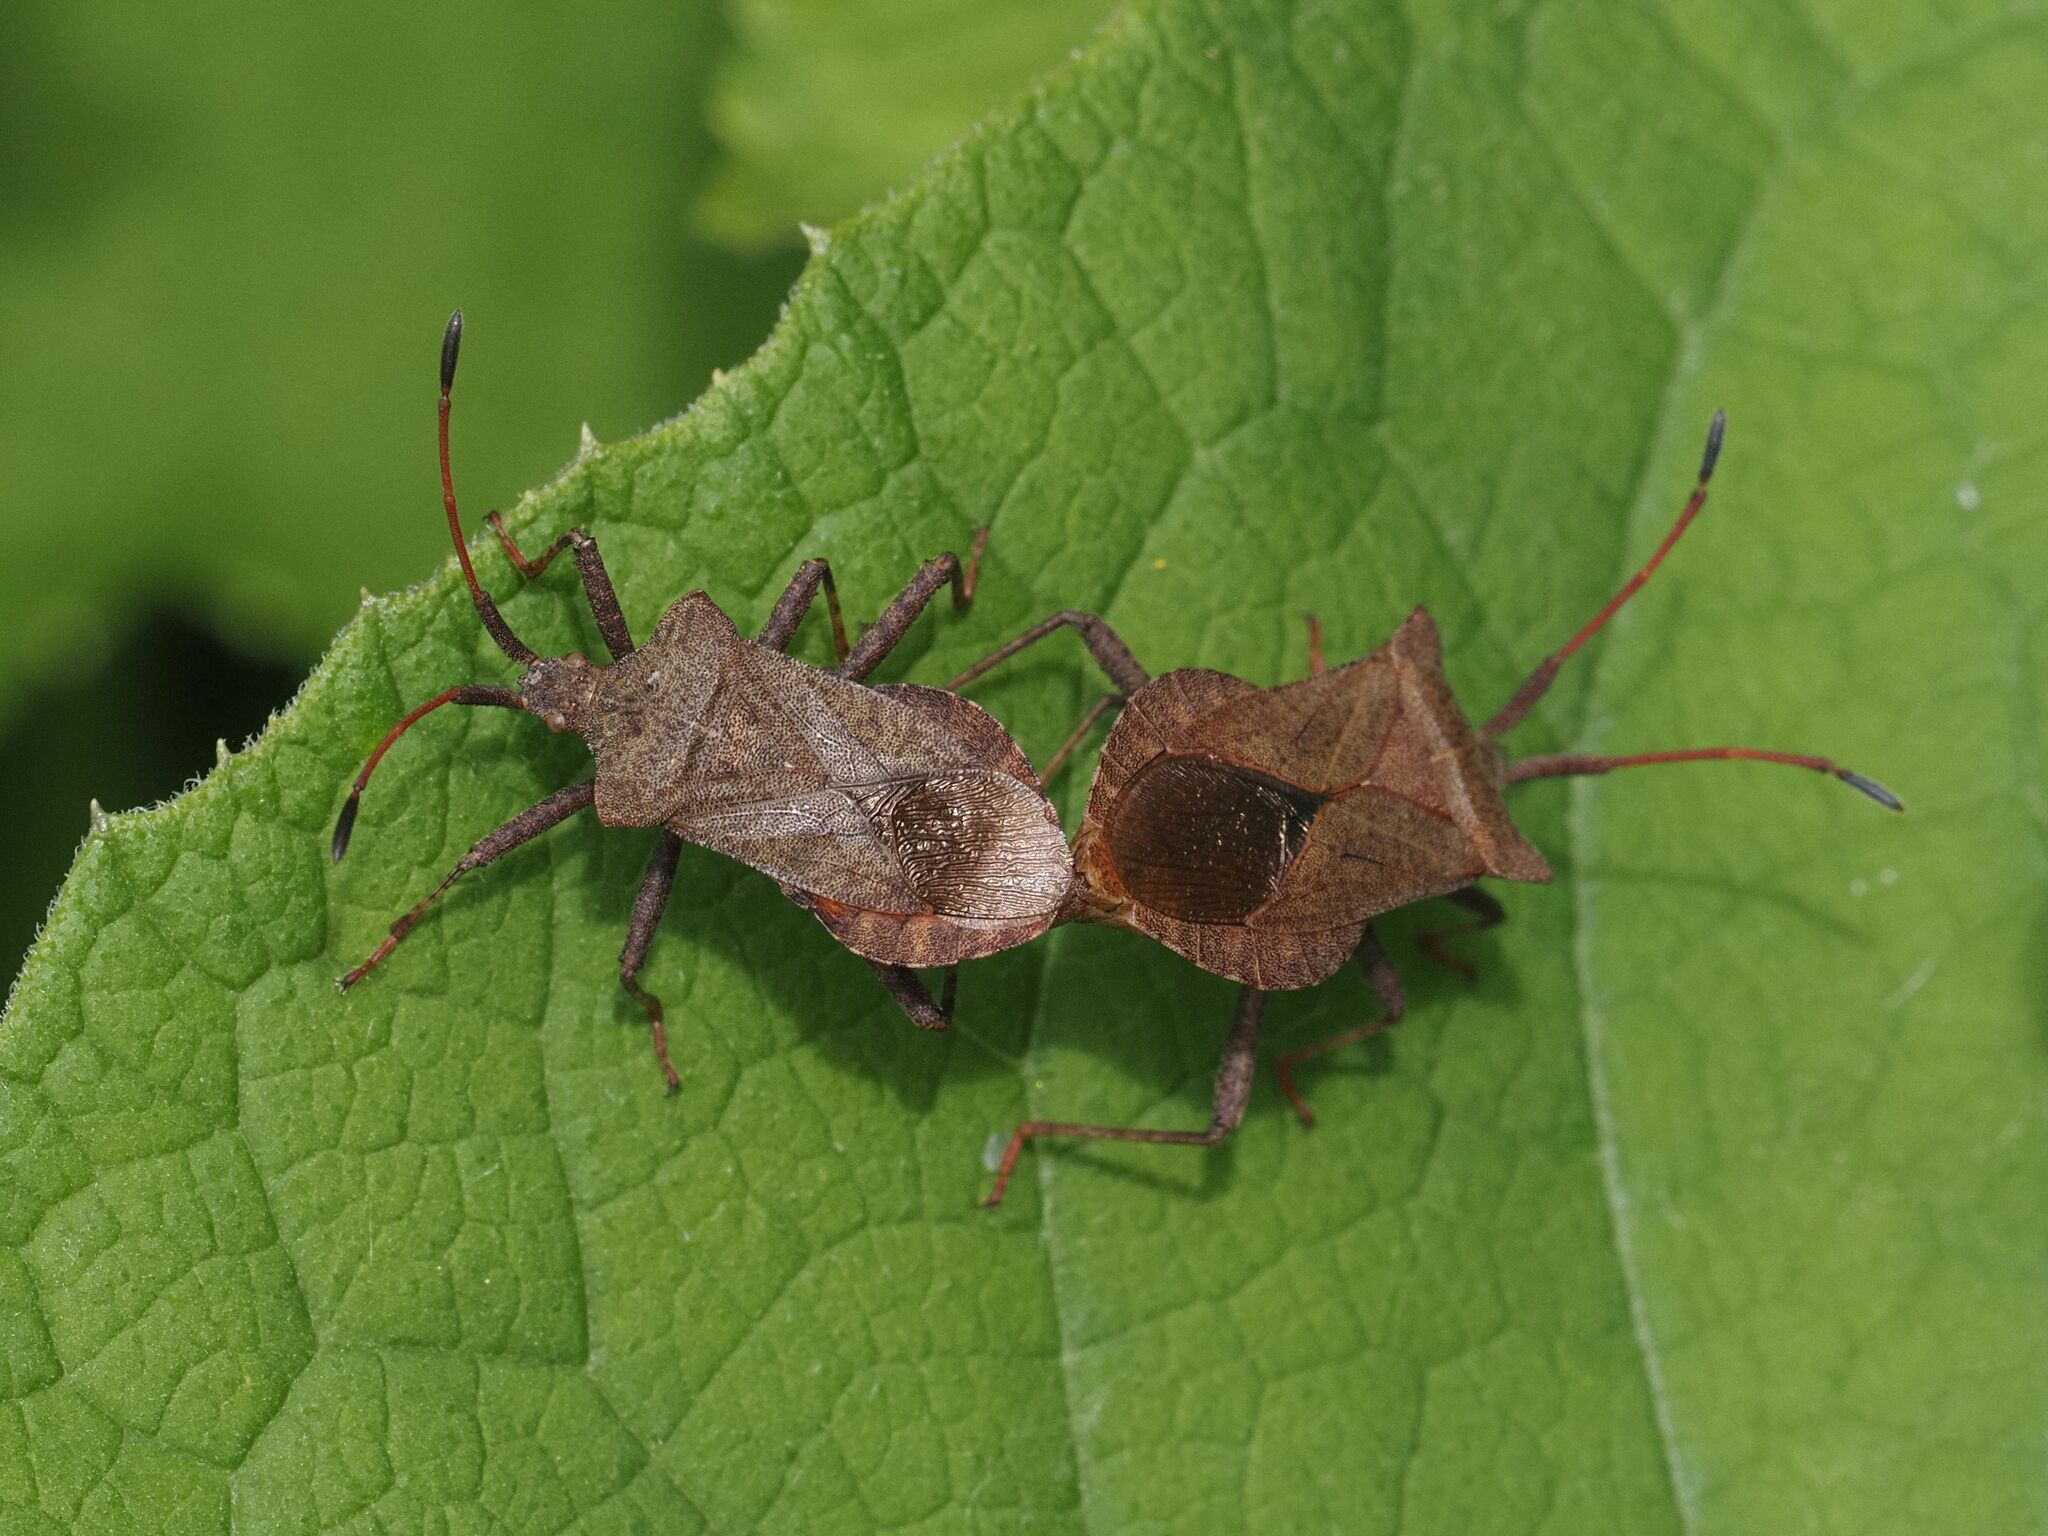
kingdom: Animalia
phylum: Arthropoda
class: Insecta
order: Hemiptera
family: Coreidae
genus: Coreus
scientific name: Coreus marginatus
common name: Dock bug
